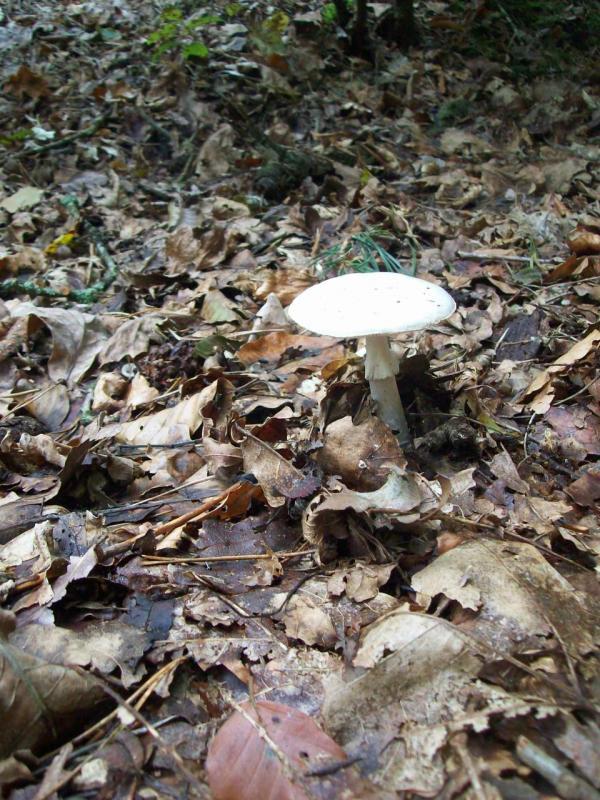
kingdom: Fungi
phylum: Basidiomycota
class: Agaricomycetes
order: Agaricales
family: Amanitaceae
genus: Amanita
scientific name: Amanita citrina
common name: False death-cap
